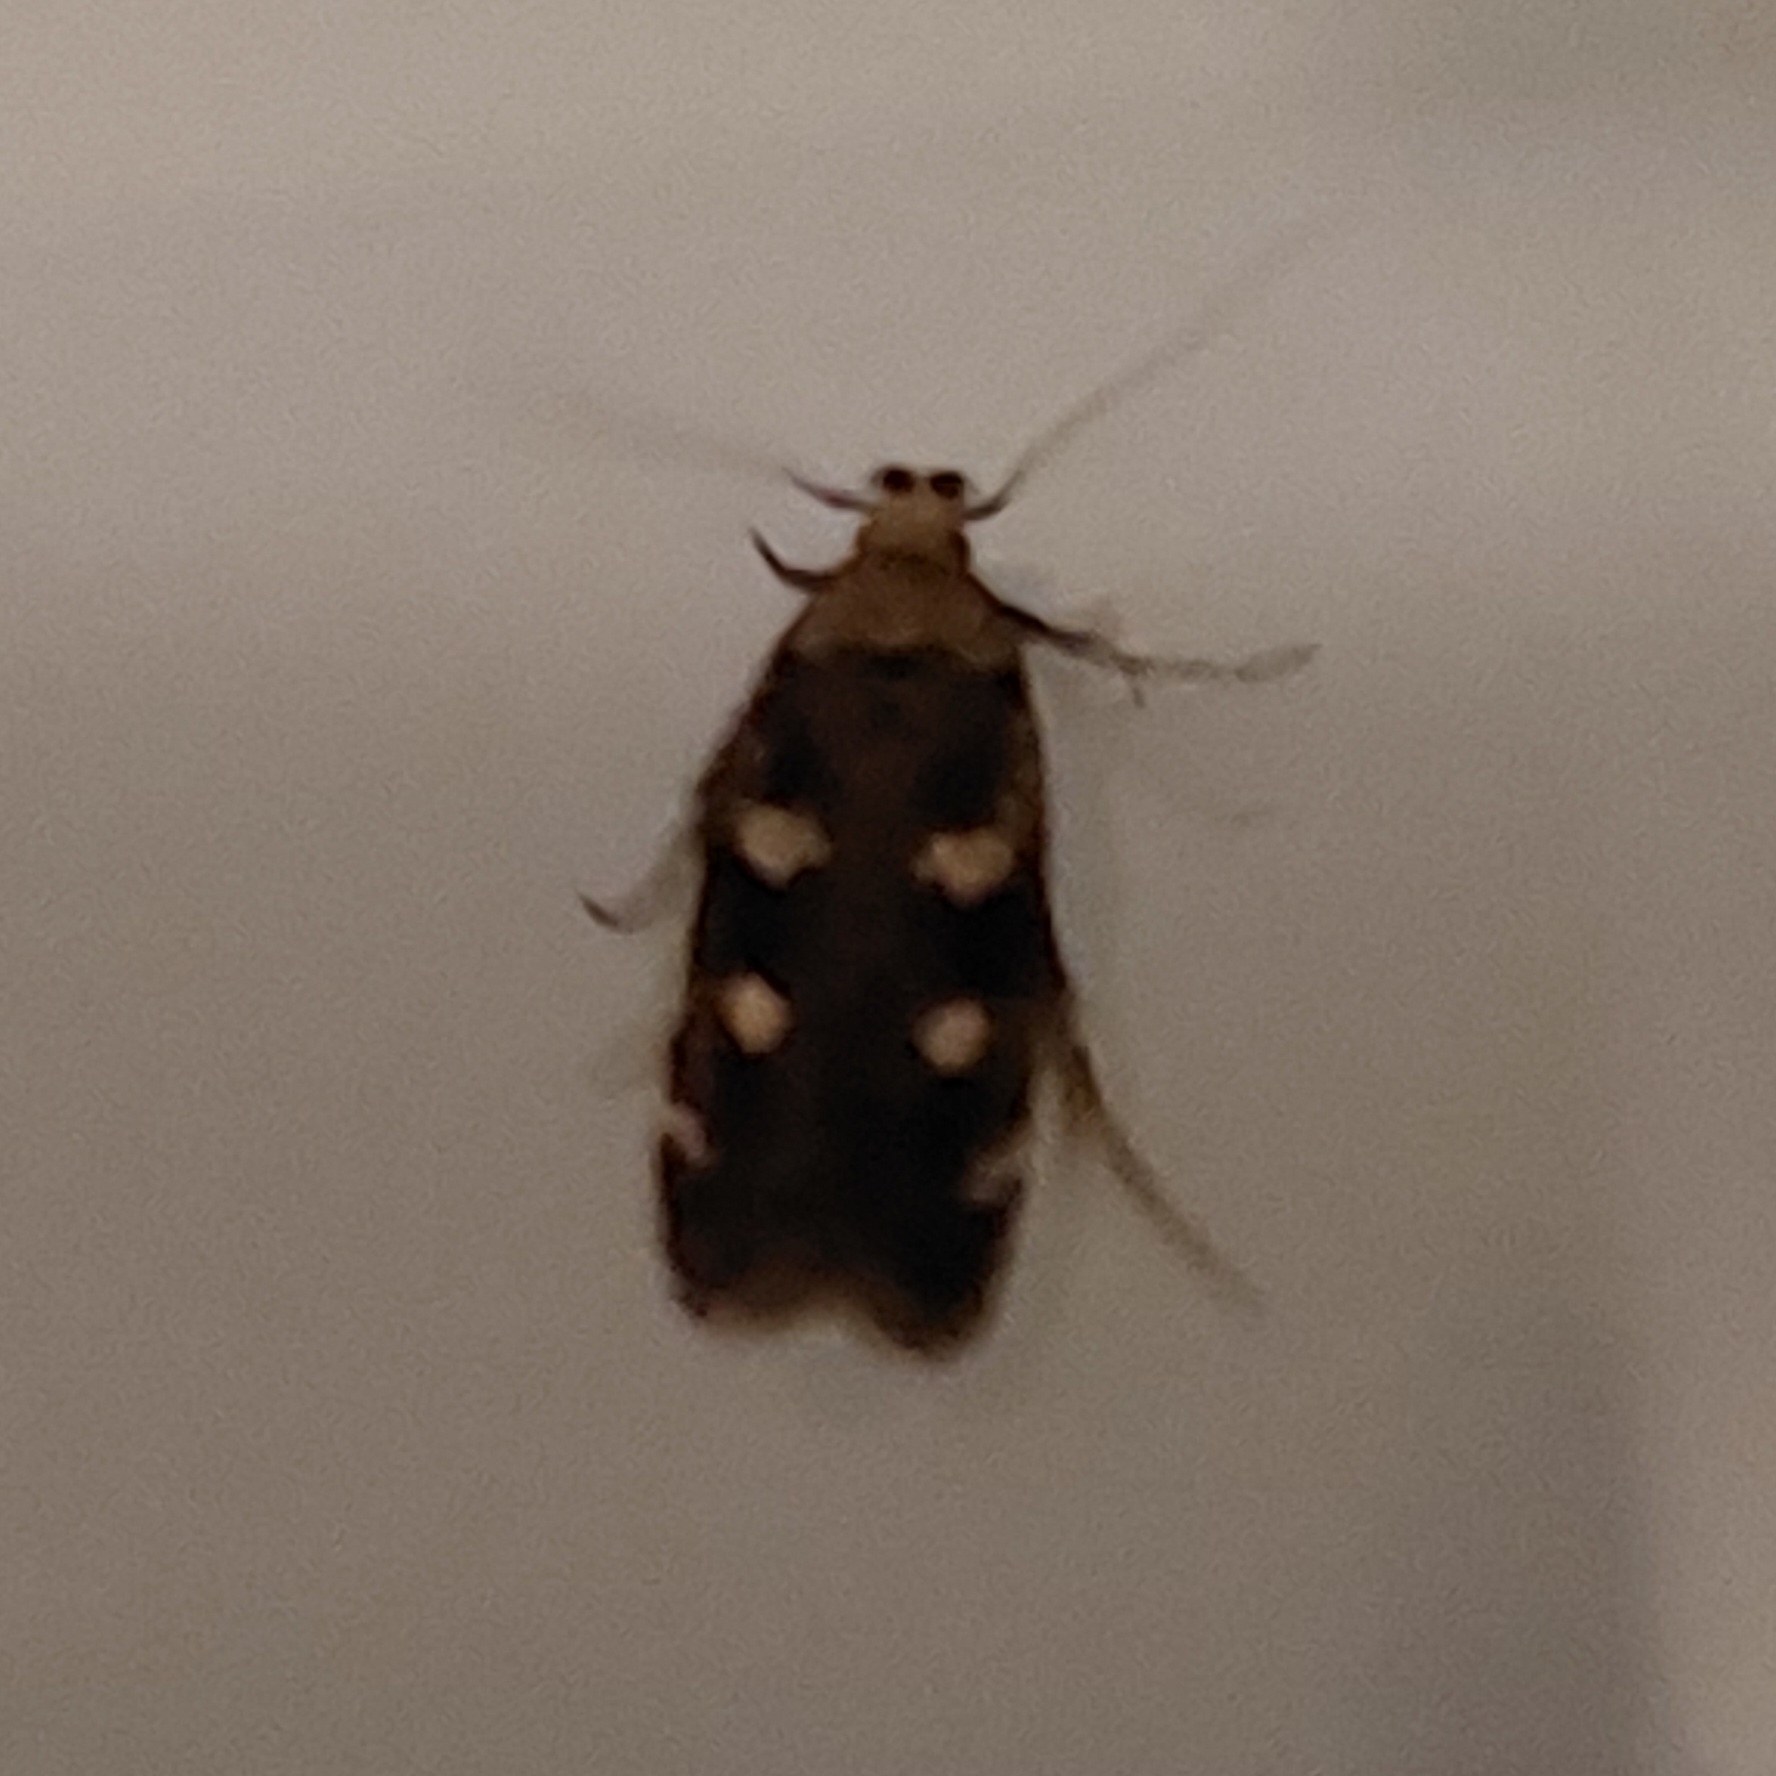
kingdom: Animalia
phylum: Arthropoda
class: Insecta
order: Lepidoptera
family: Gelechiidae
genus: Gelechia
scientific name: Gelechia sestertiella
